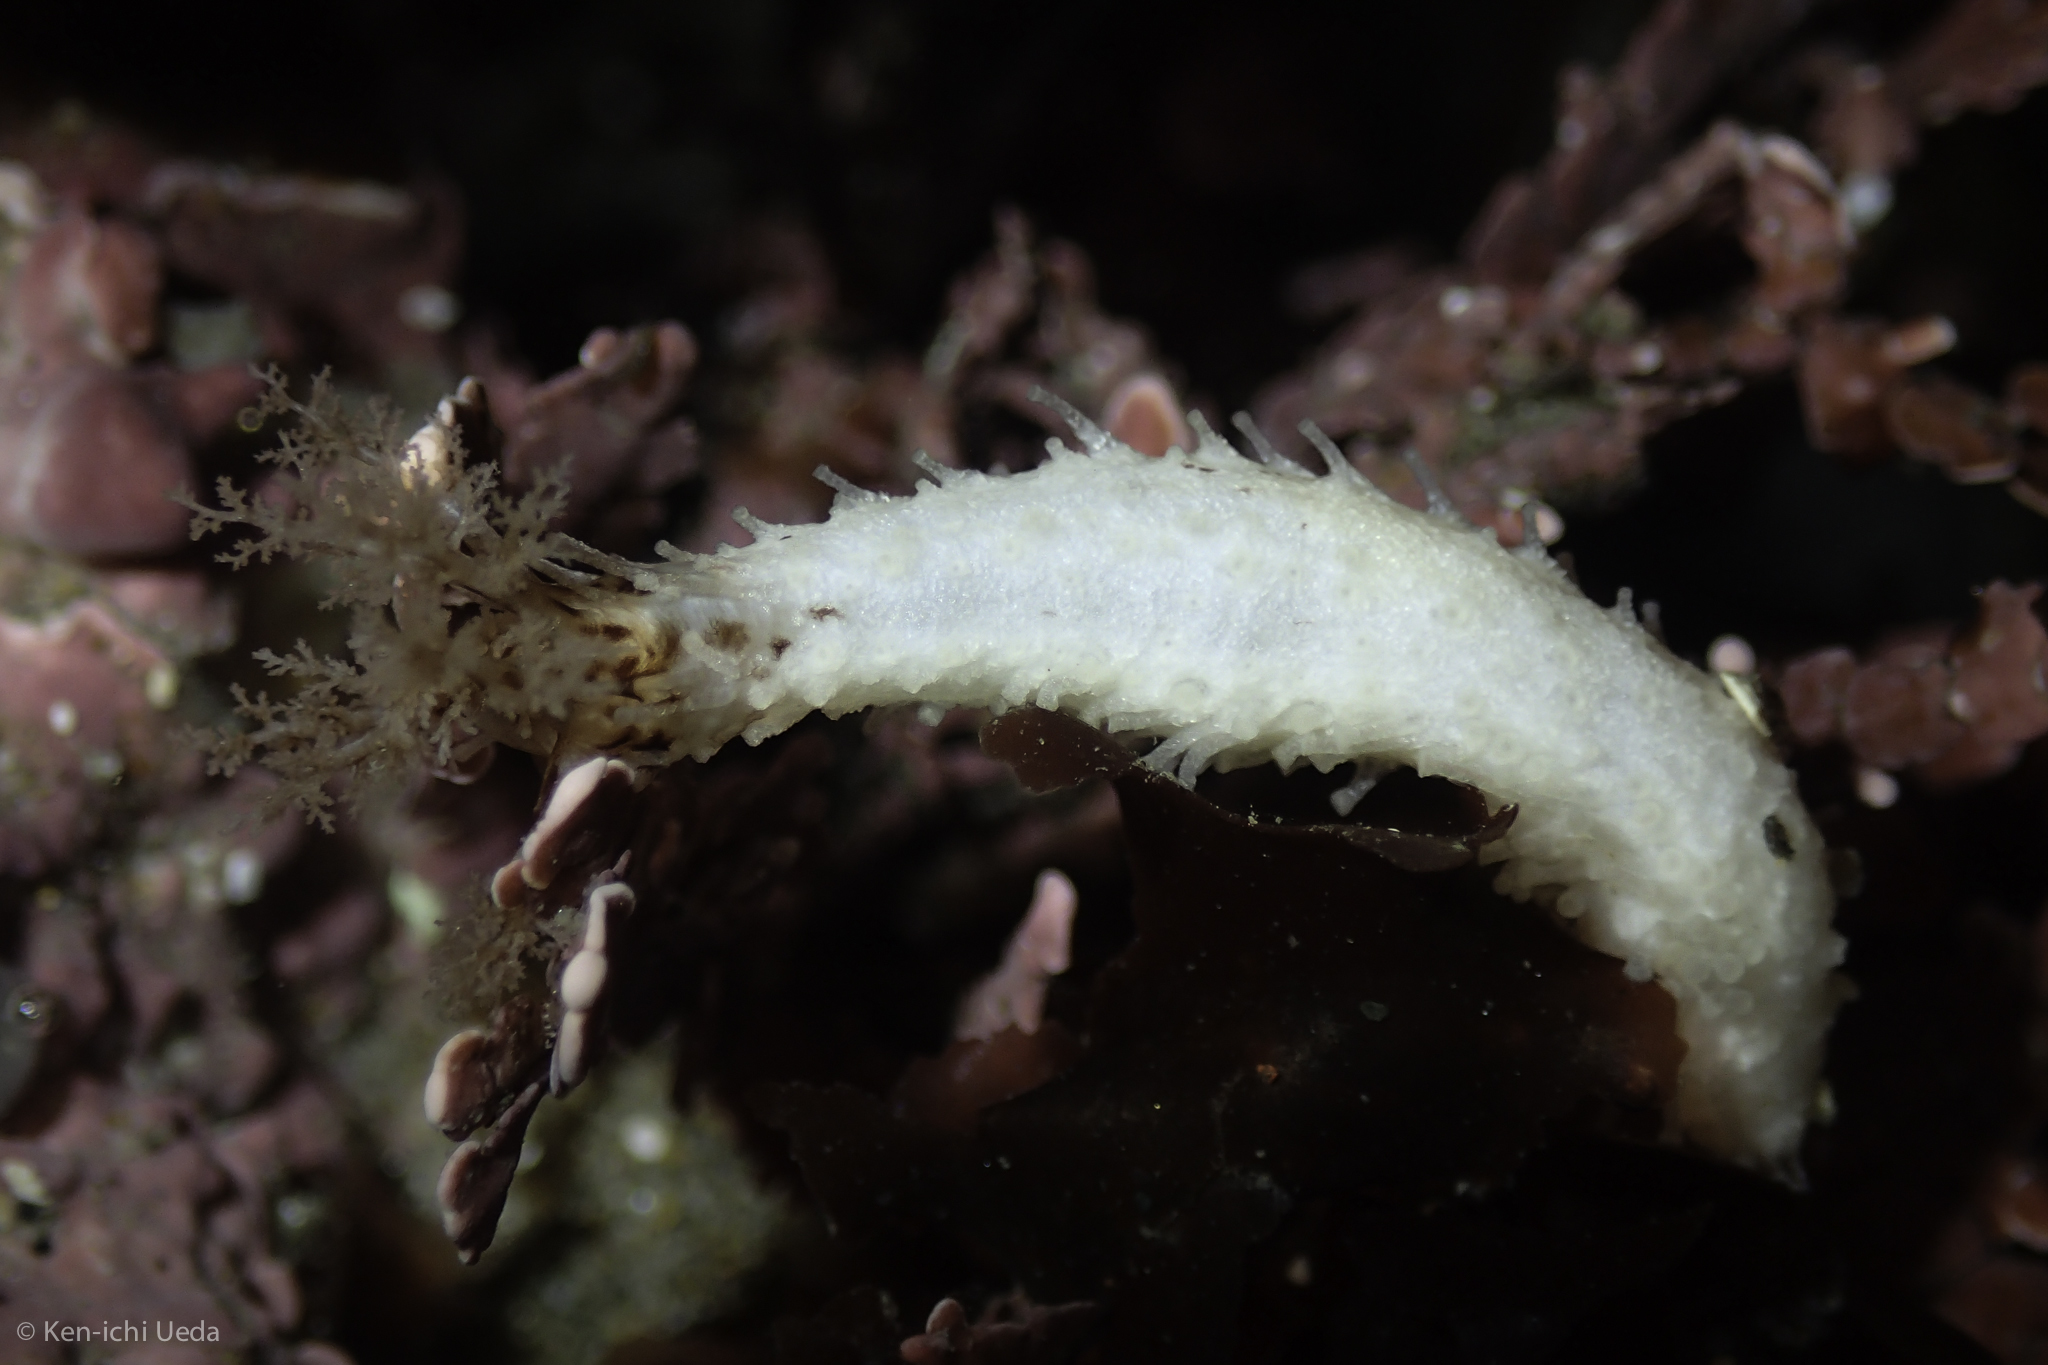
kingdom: Animalia
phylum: Echinodermata
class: Holothuroidea
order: Dendrochirotida
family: Sclerodactylidae
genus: Eupentacta
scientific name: Eupentacta quinquesemita
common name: Pentamerous sea cucumber
